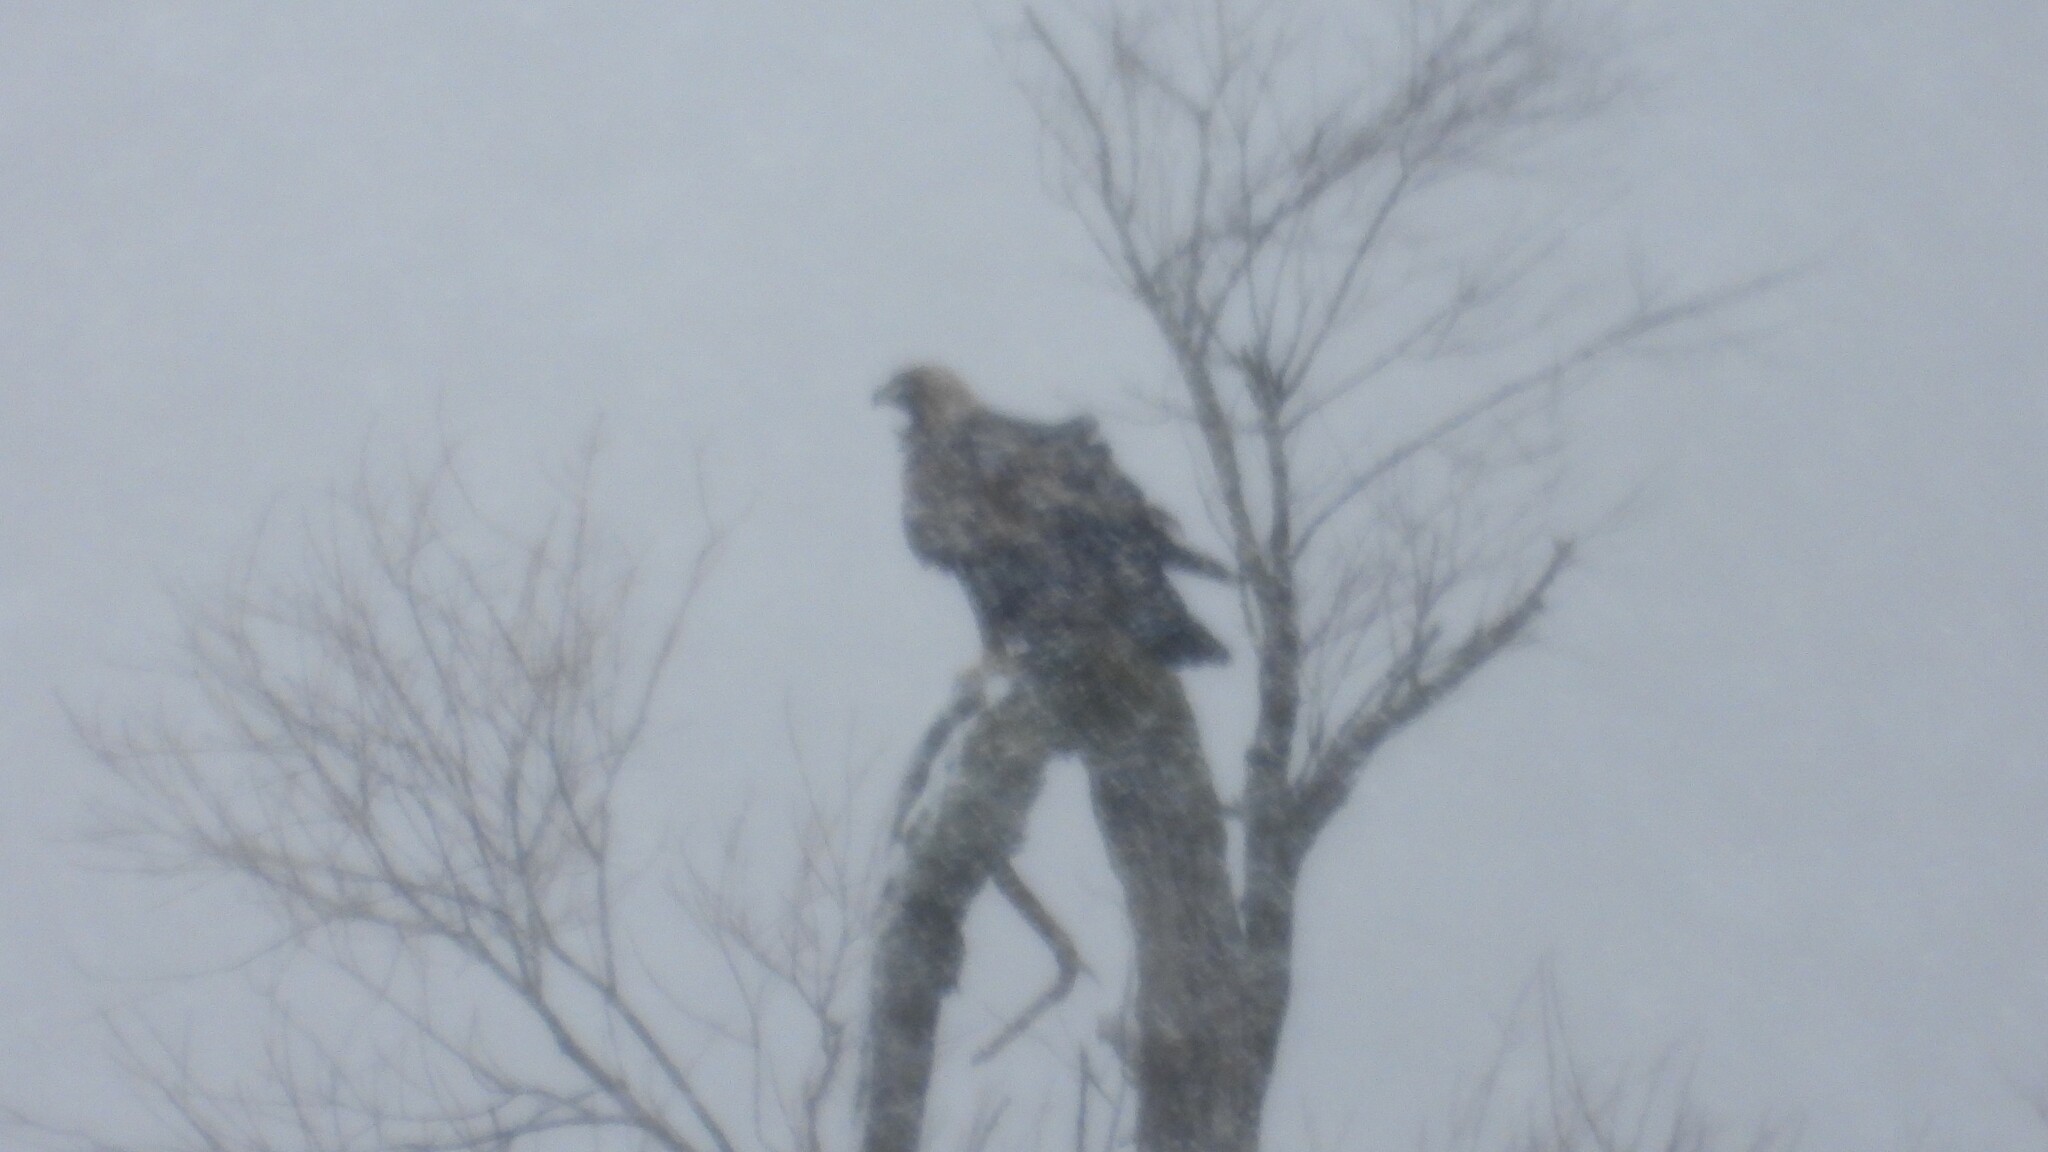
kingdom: Animalia
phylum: Chordata
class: Aves
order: Accipitriformes
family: Accipitridae
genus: Aquila
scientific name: Aquila chrysaetos
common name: Golden eagle
